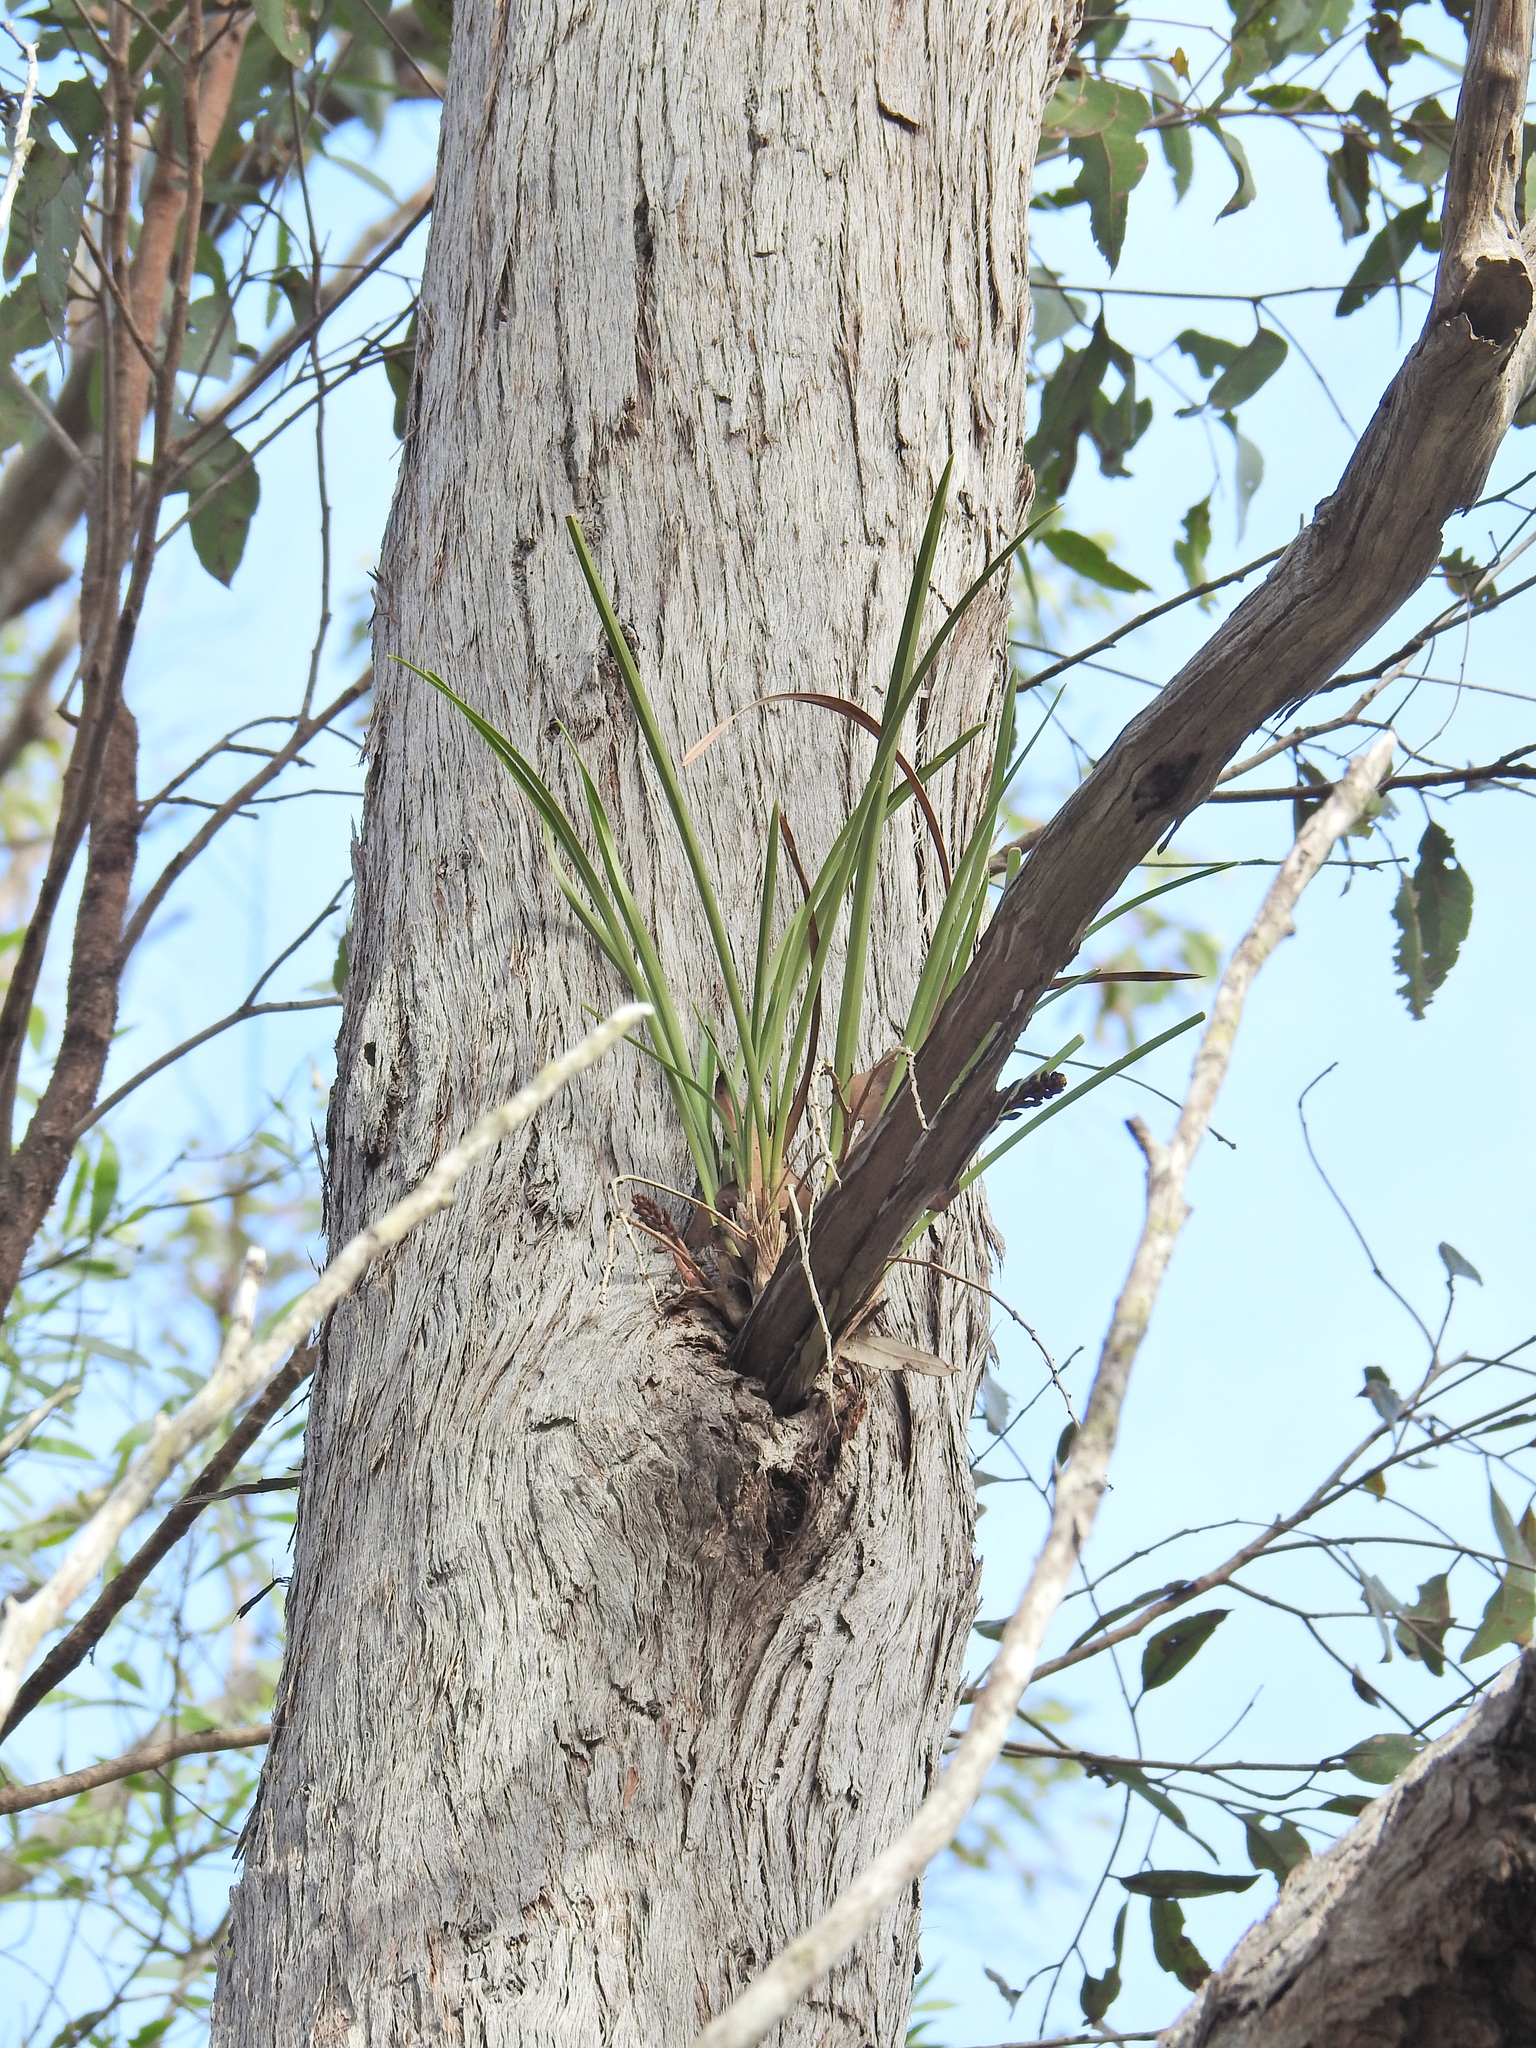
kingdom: Plantae
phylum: Tracheophyta
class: Liliopsida
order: Asparagales
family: Orchidaceae
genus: Cymbidium
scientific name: Cymbidium suave
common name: Snake orchid
